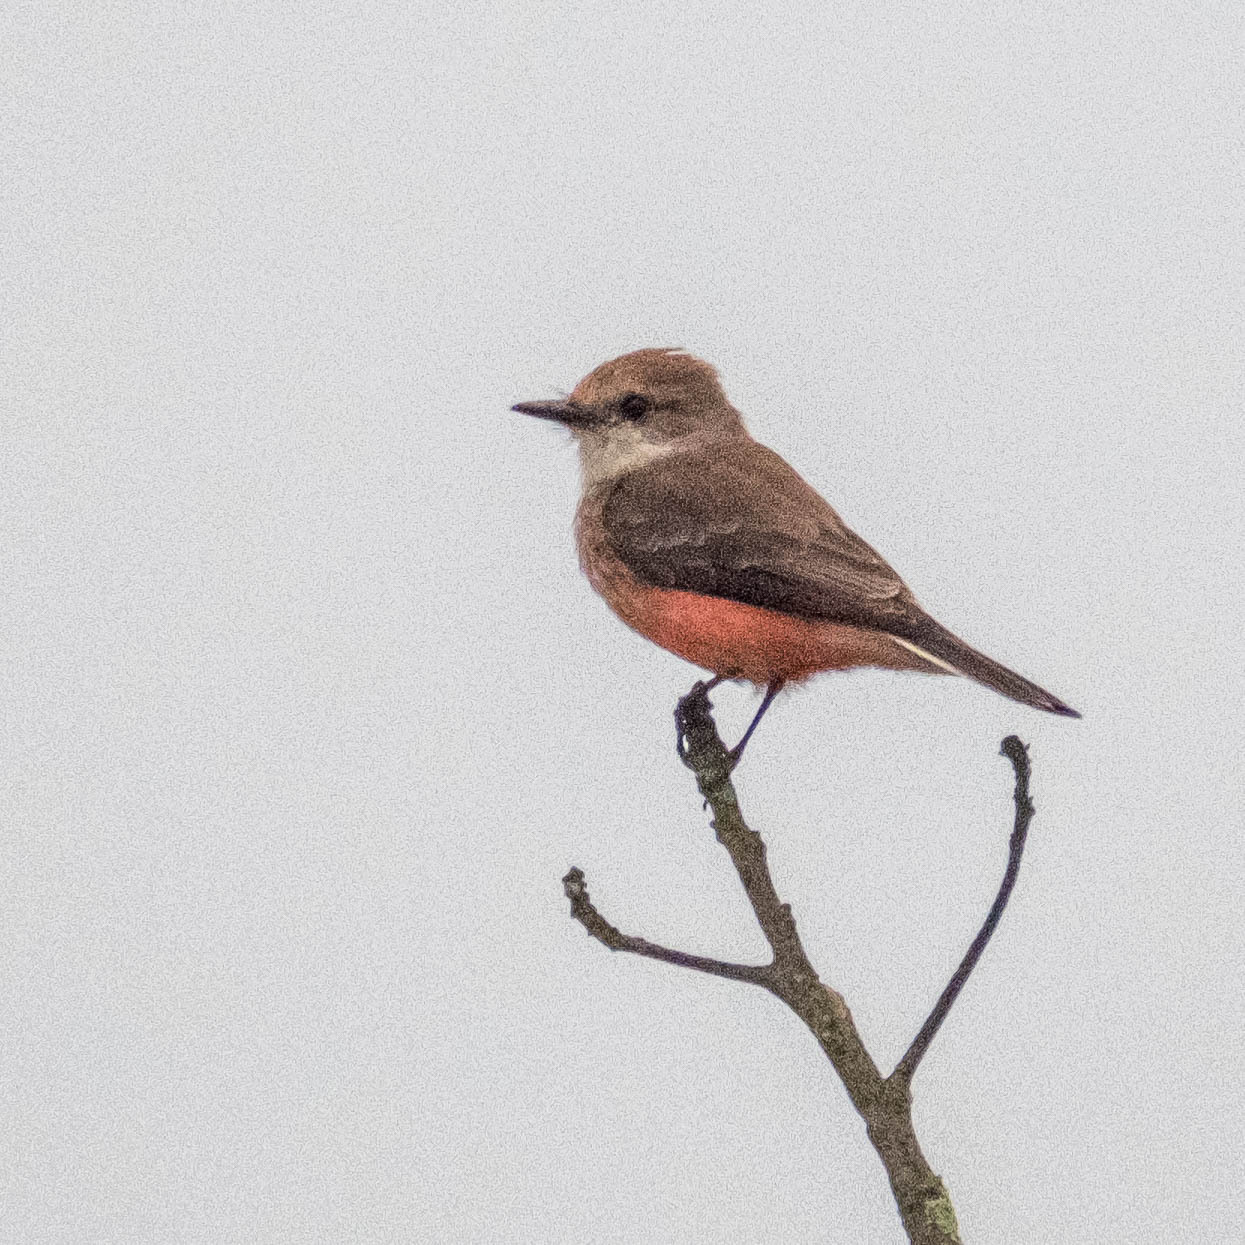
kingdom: Animalia
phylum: Chordata
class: Aves
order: Passeriformes
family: Tyrannidae
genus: Pyrocephalus
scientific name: Pyrocephalus rubinus
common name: Vermilion flycatcher
